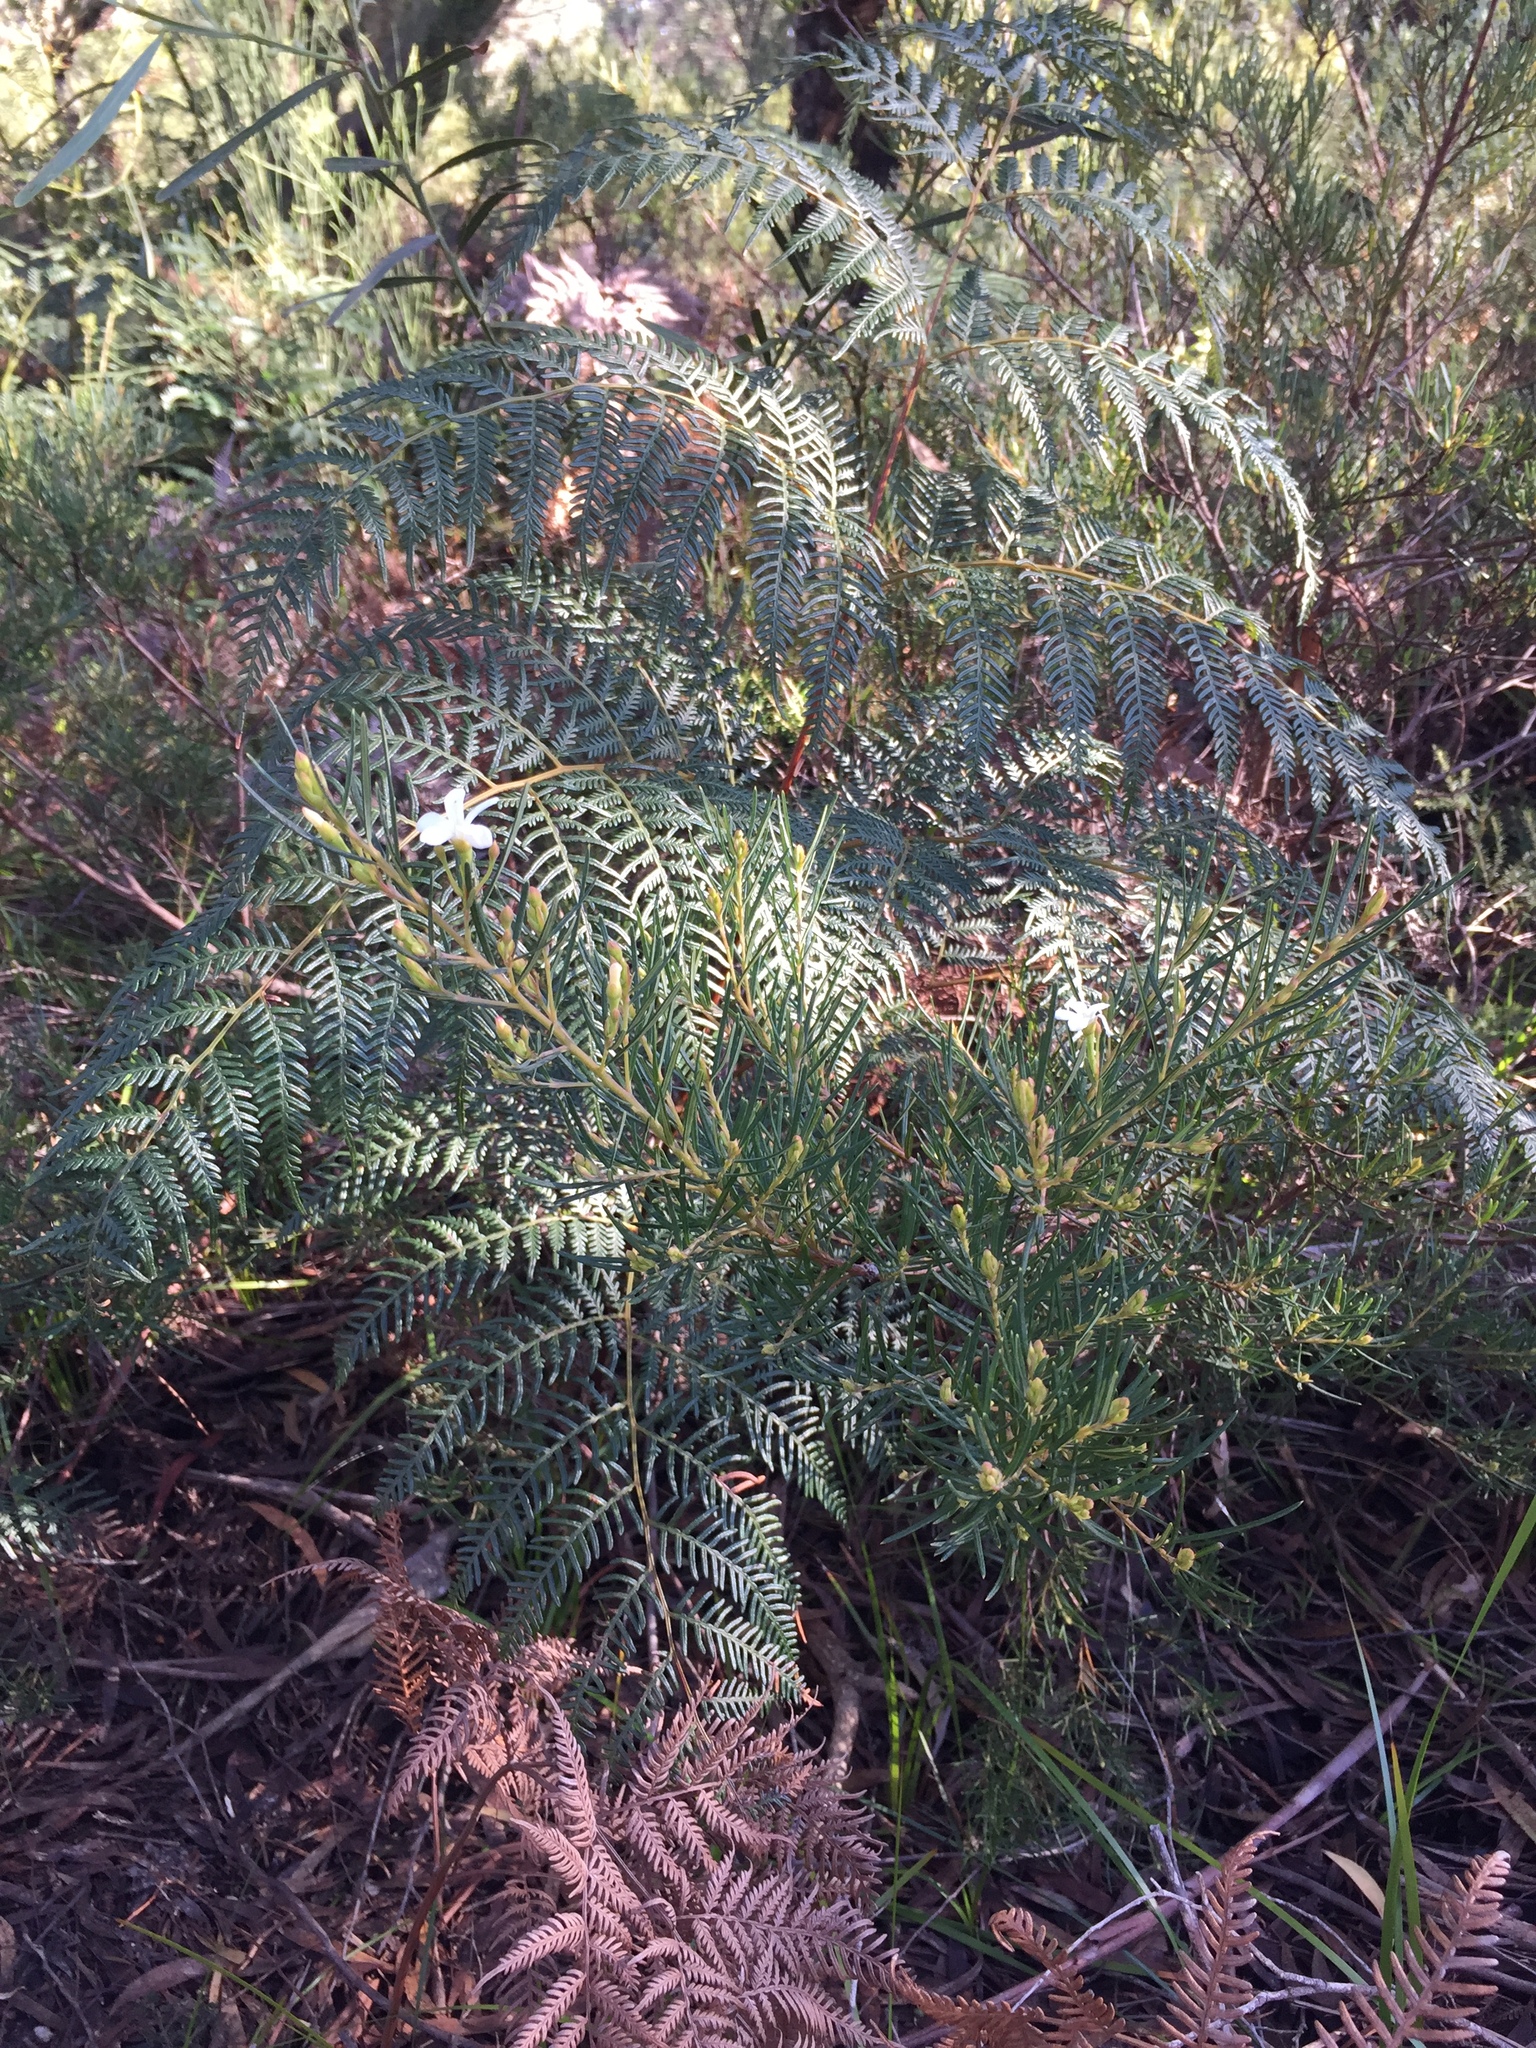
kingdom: Plantae
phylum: Tracheophyta
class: Magnoliopsida
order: Malpighiales
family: Euphorbiaceae
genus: Ricinocarpos
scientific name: Ricinocarpos pinifolius
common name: Weddingbush
